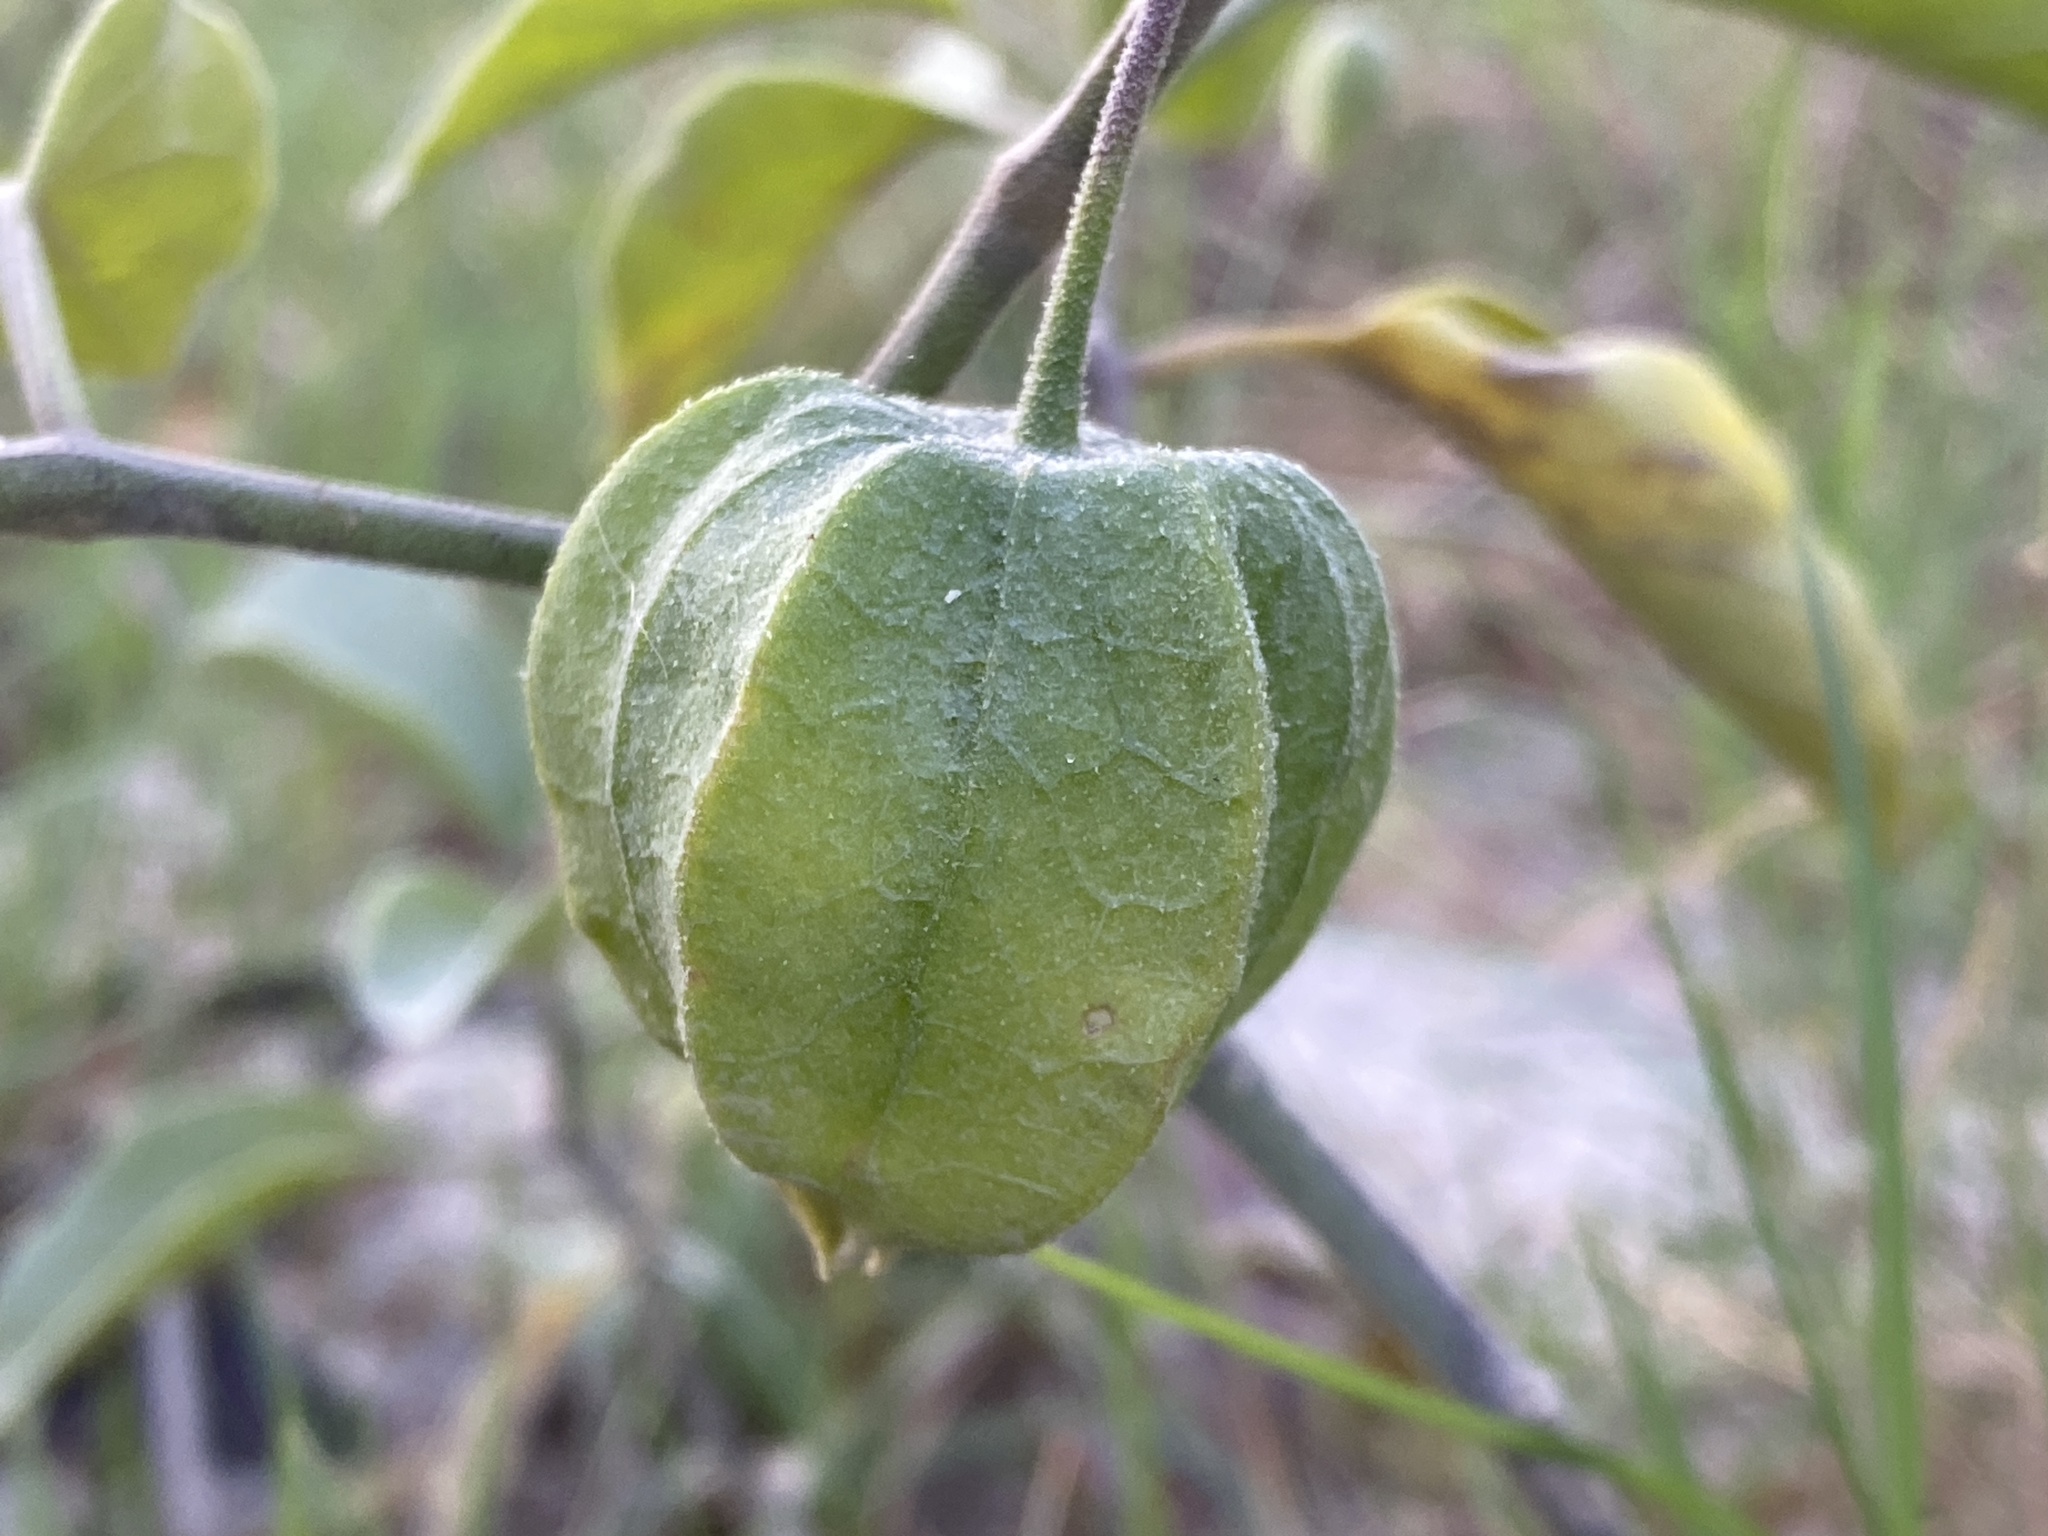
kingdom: Plantae
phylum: Tracheophyta
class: Magnoliopsida
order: Solanales
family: Solanaceae
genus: Physalis
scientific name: Physalis walteri
